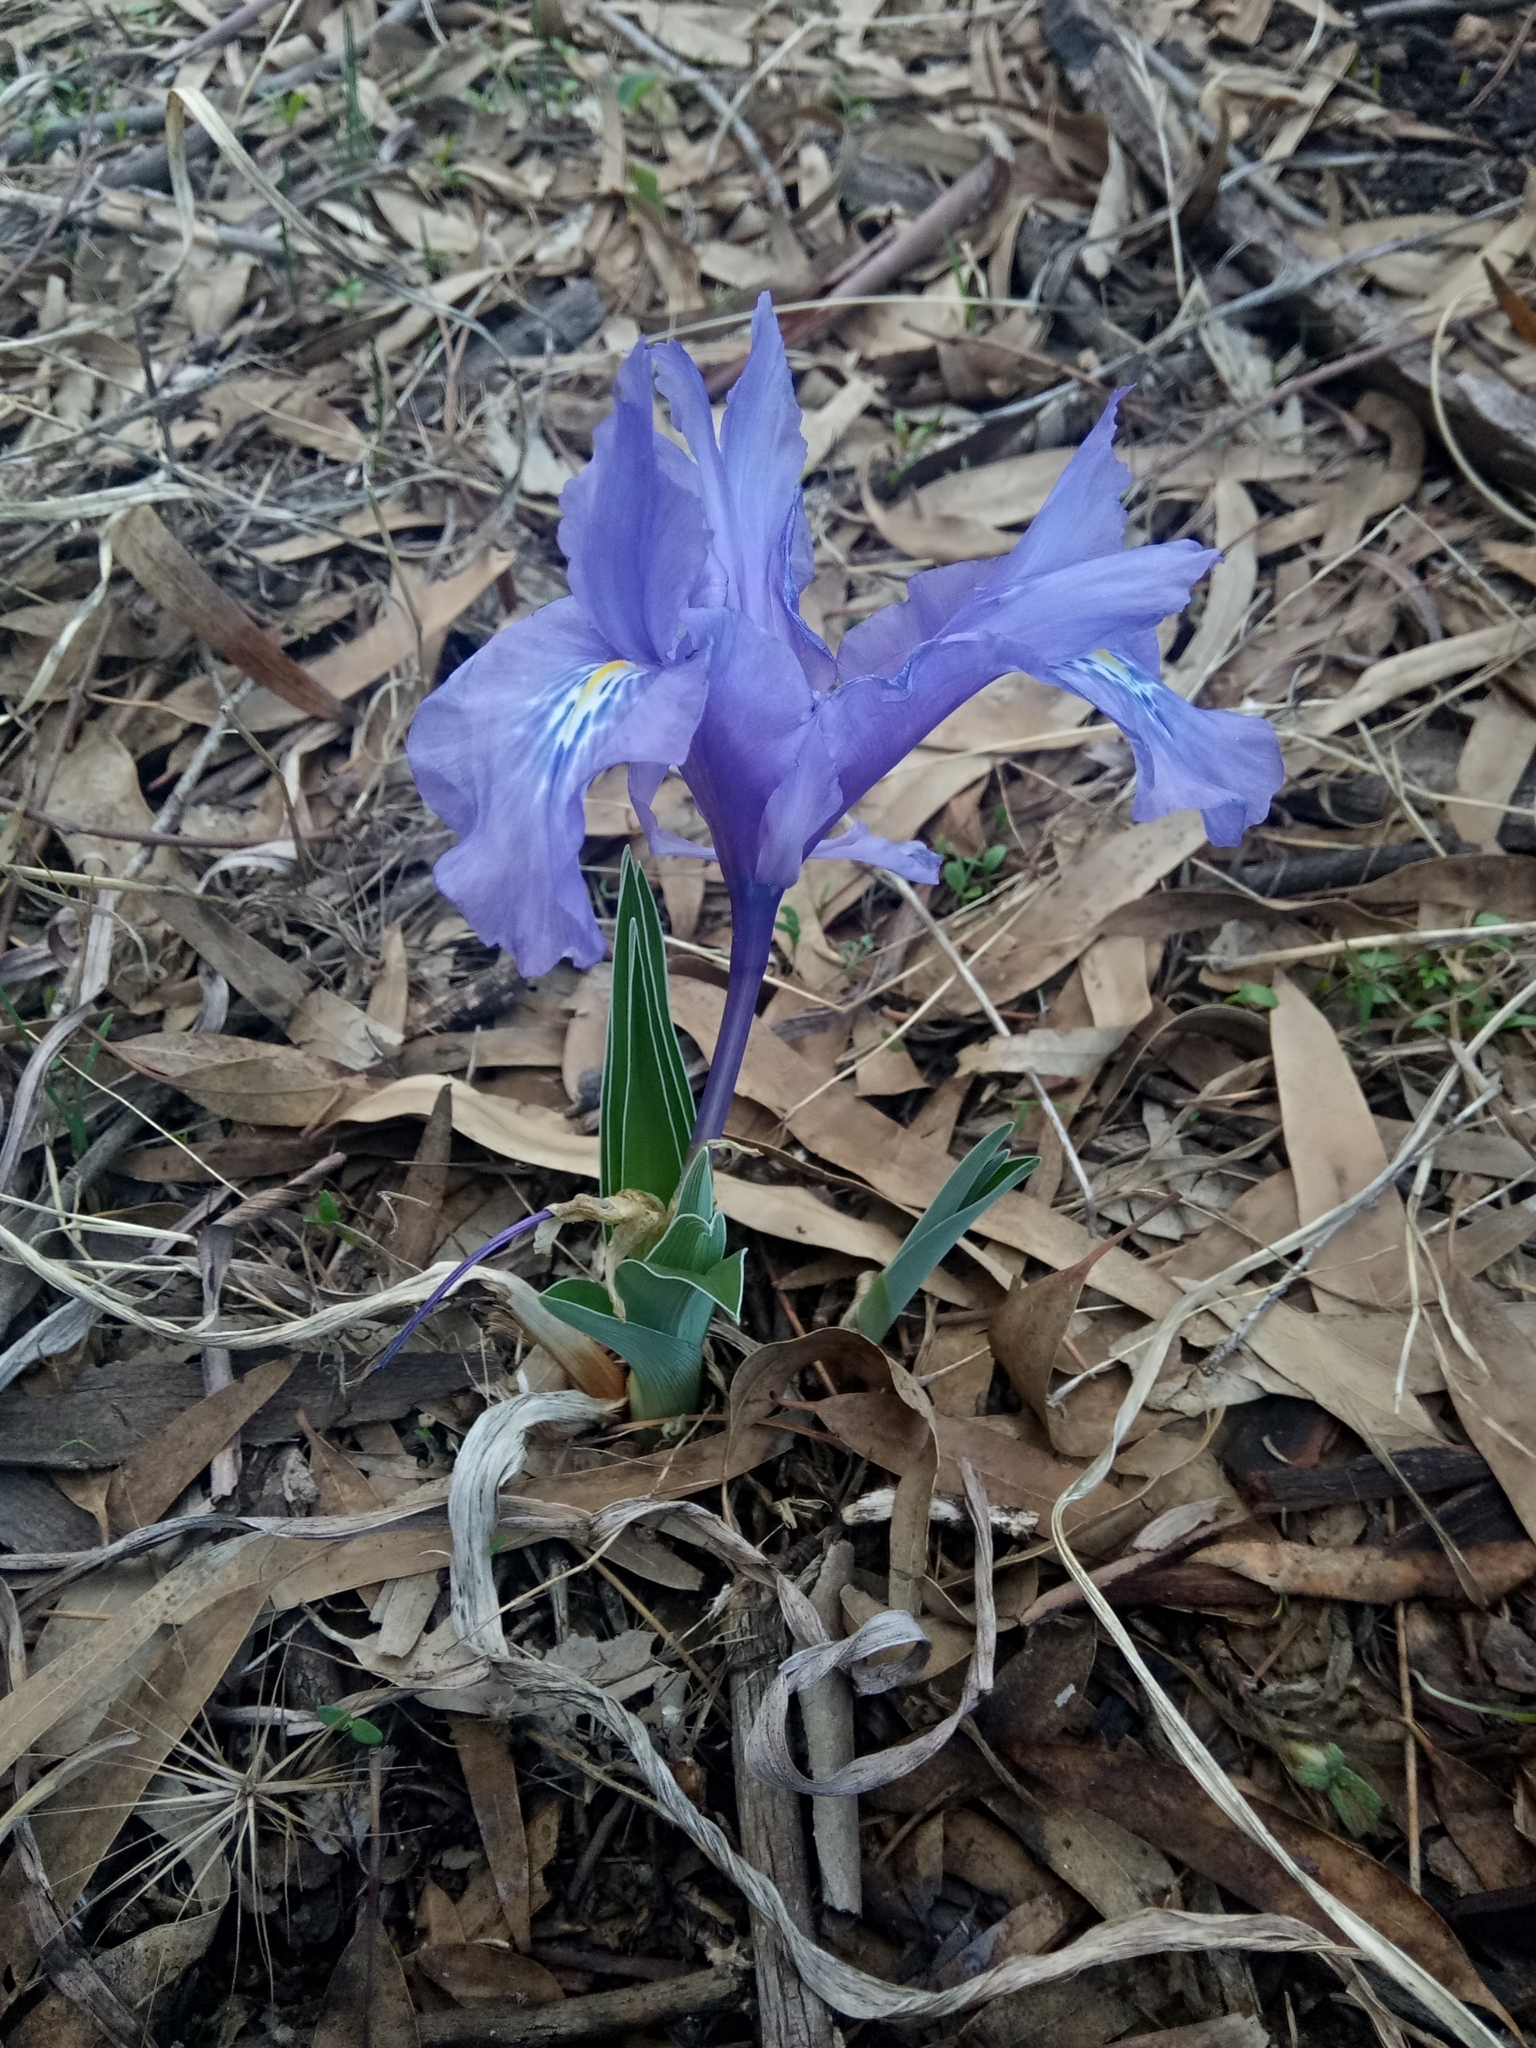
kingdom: Plantae
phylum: Tracheophyta
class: Liliopsida
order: Asparagales
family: Iridaceae
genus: Iris
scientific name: Iris planifolia
